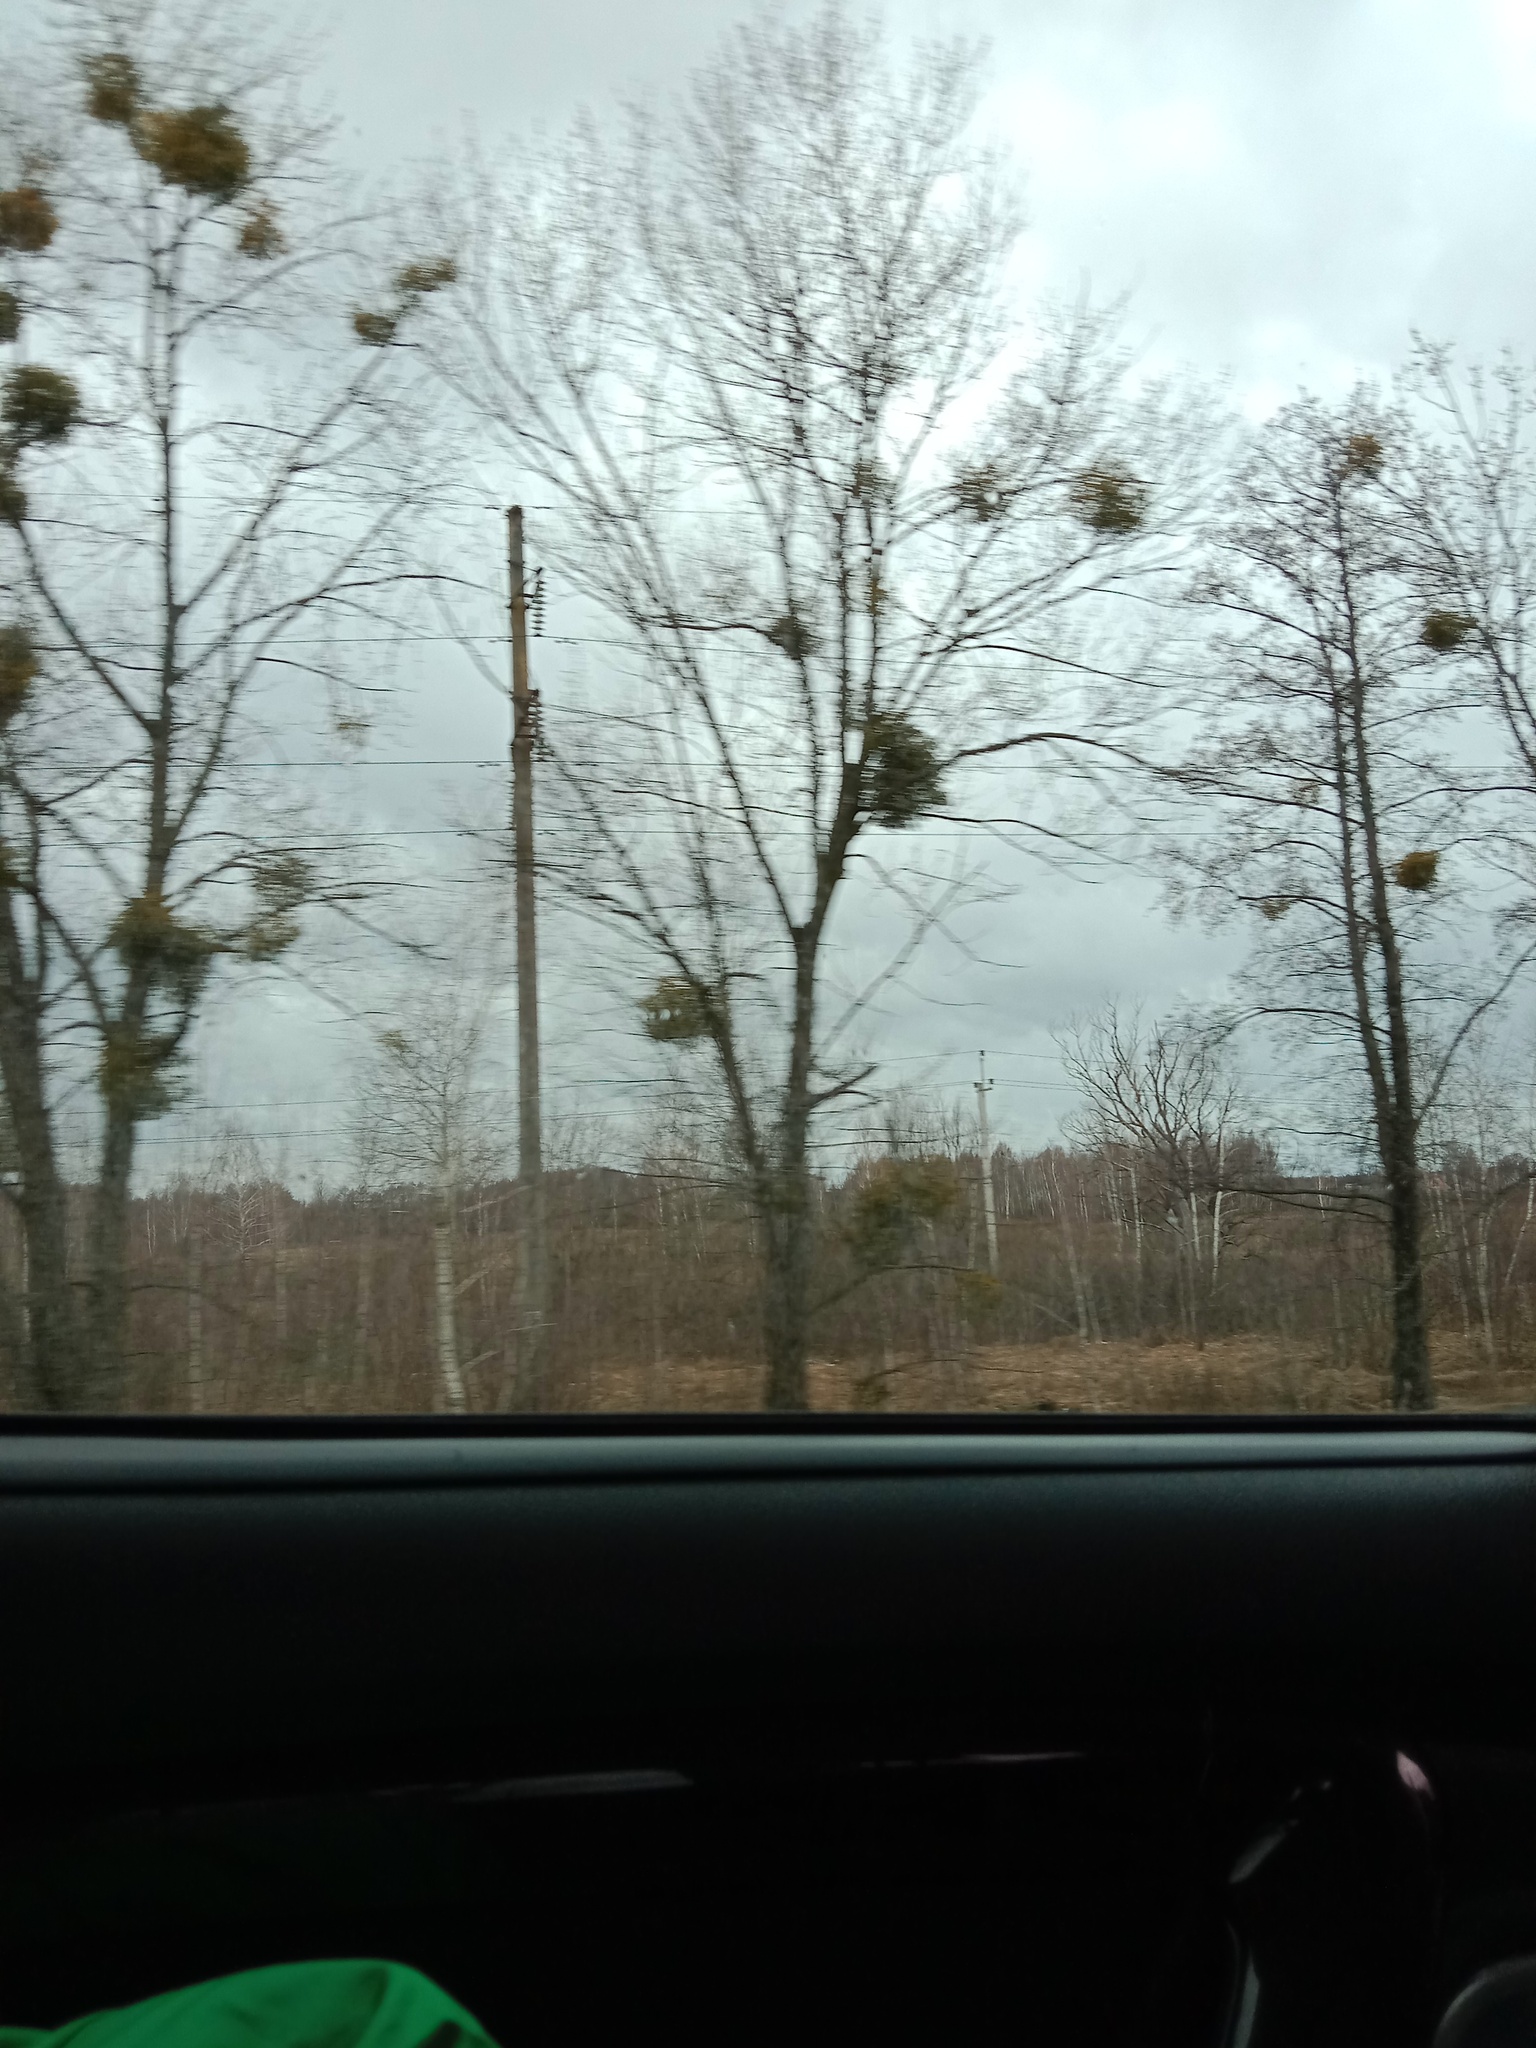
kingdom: Plantae
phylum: Tracheophyta
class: Magnoliopsida
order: Santalales
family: Viscaceae
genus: Viscum
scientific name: Viscum album
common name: Mistletoe
